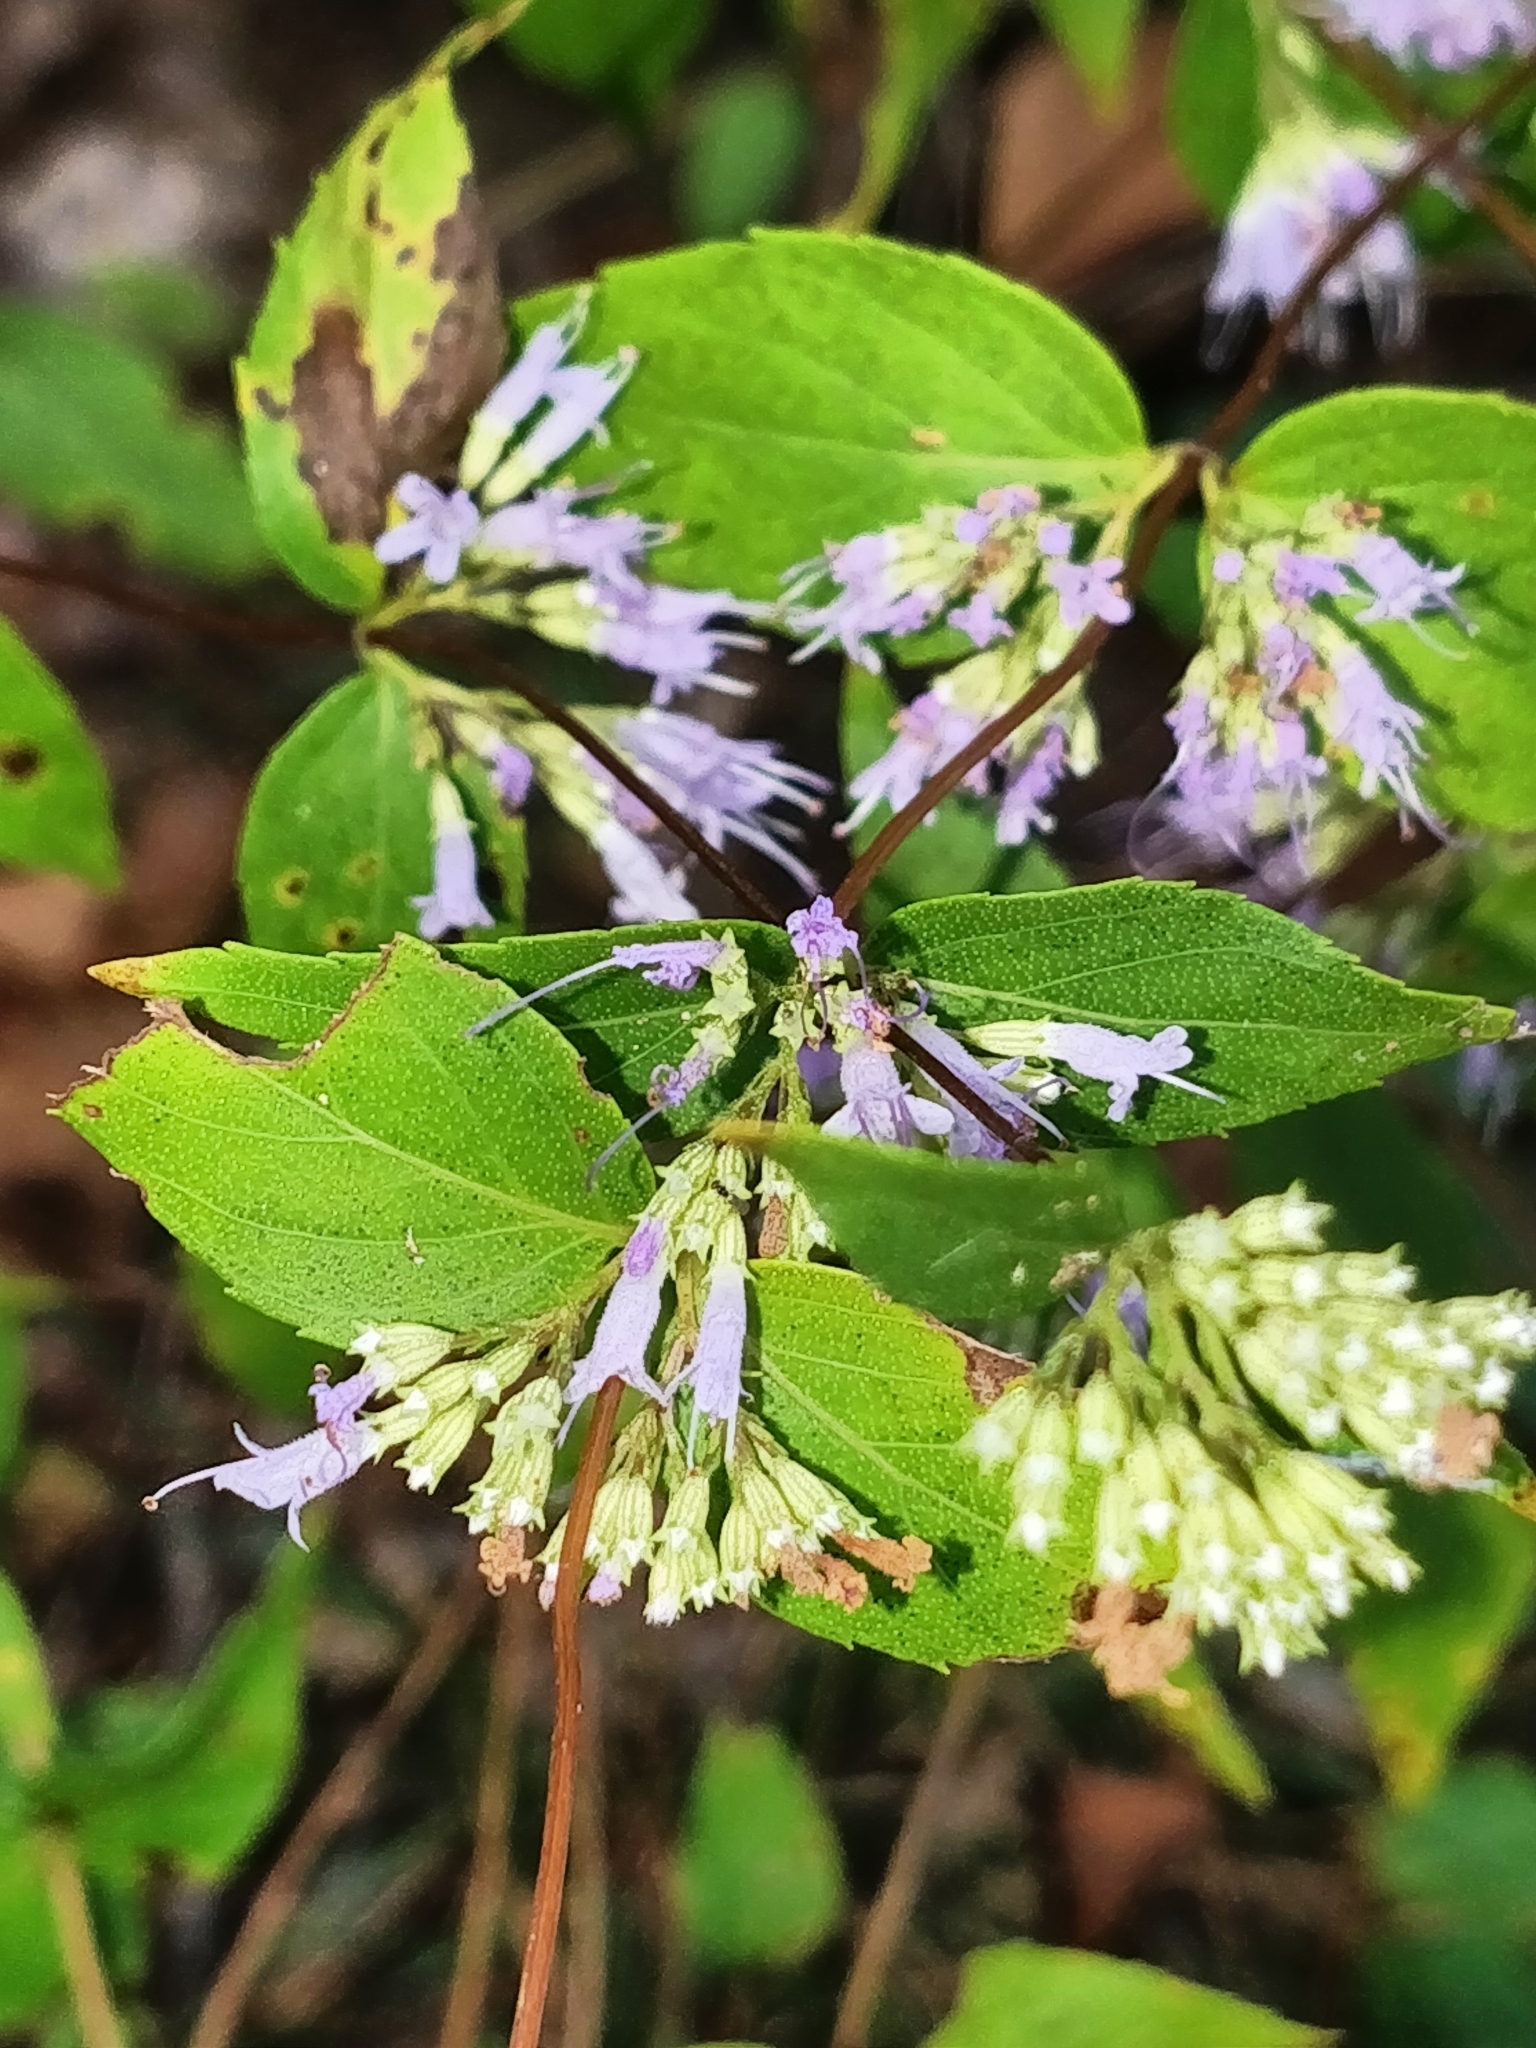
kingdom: Plantae
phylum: Tracheophyta
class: Magnoliopsida
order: Lamiales
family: Lamiaceae
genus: Cunila
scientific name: Cunila origanoides
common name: American dittany
